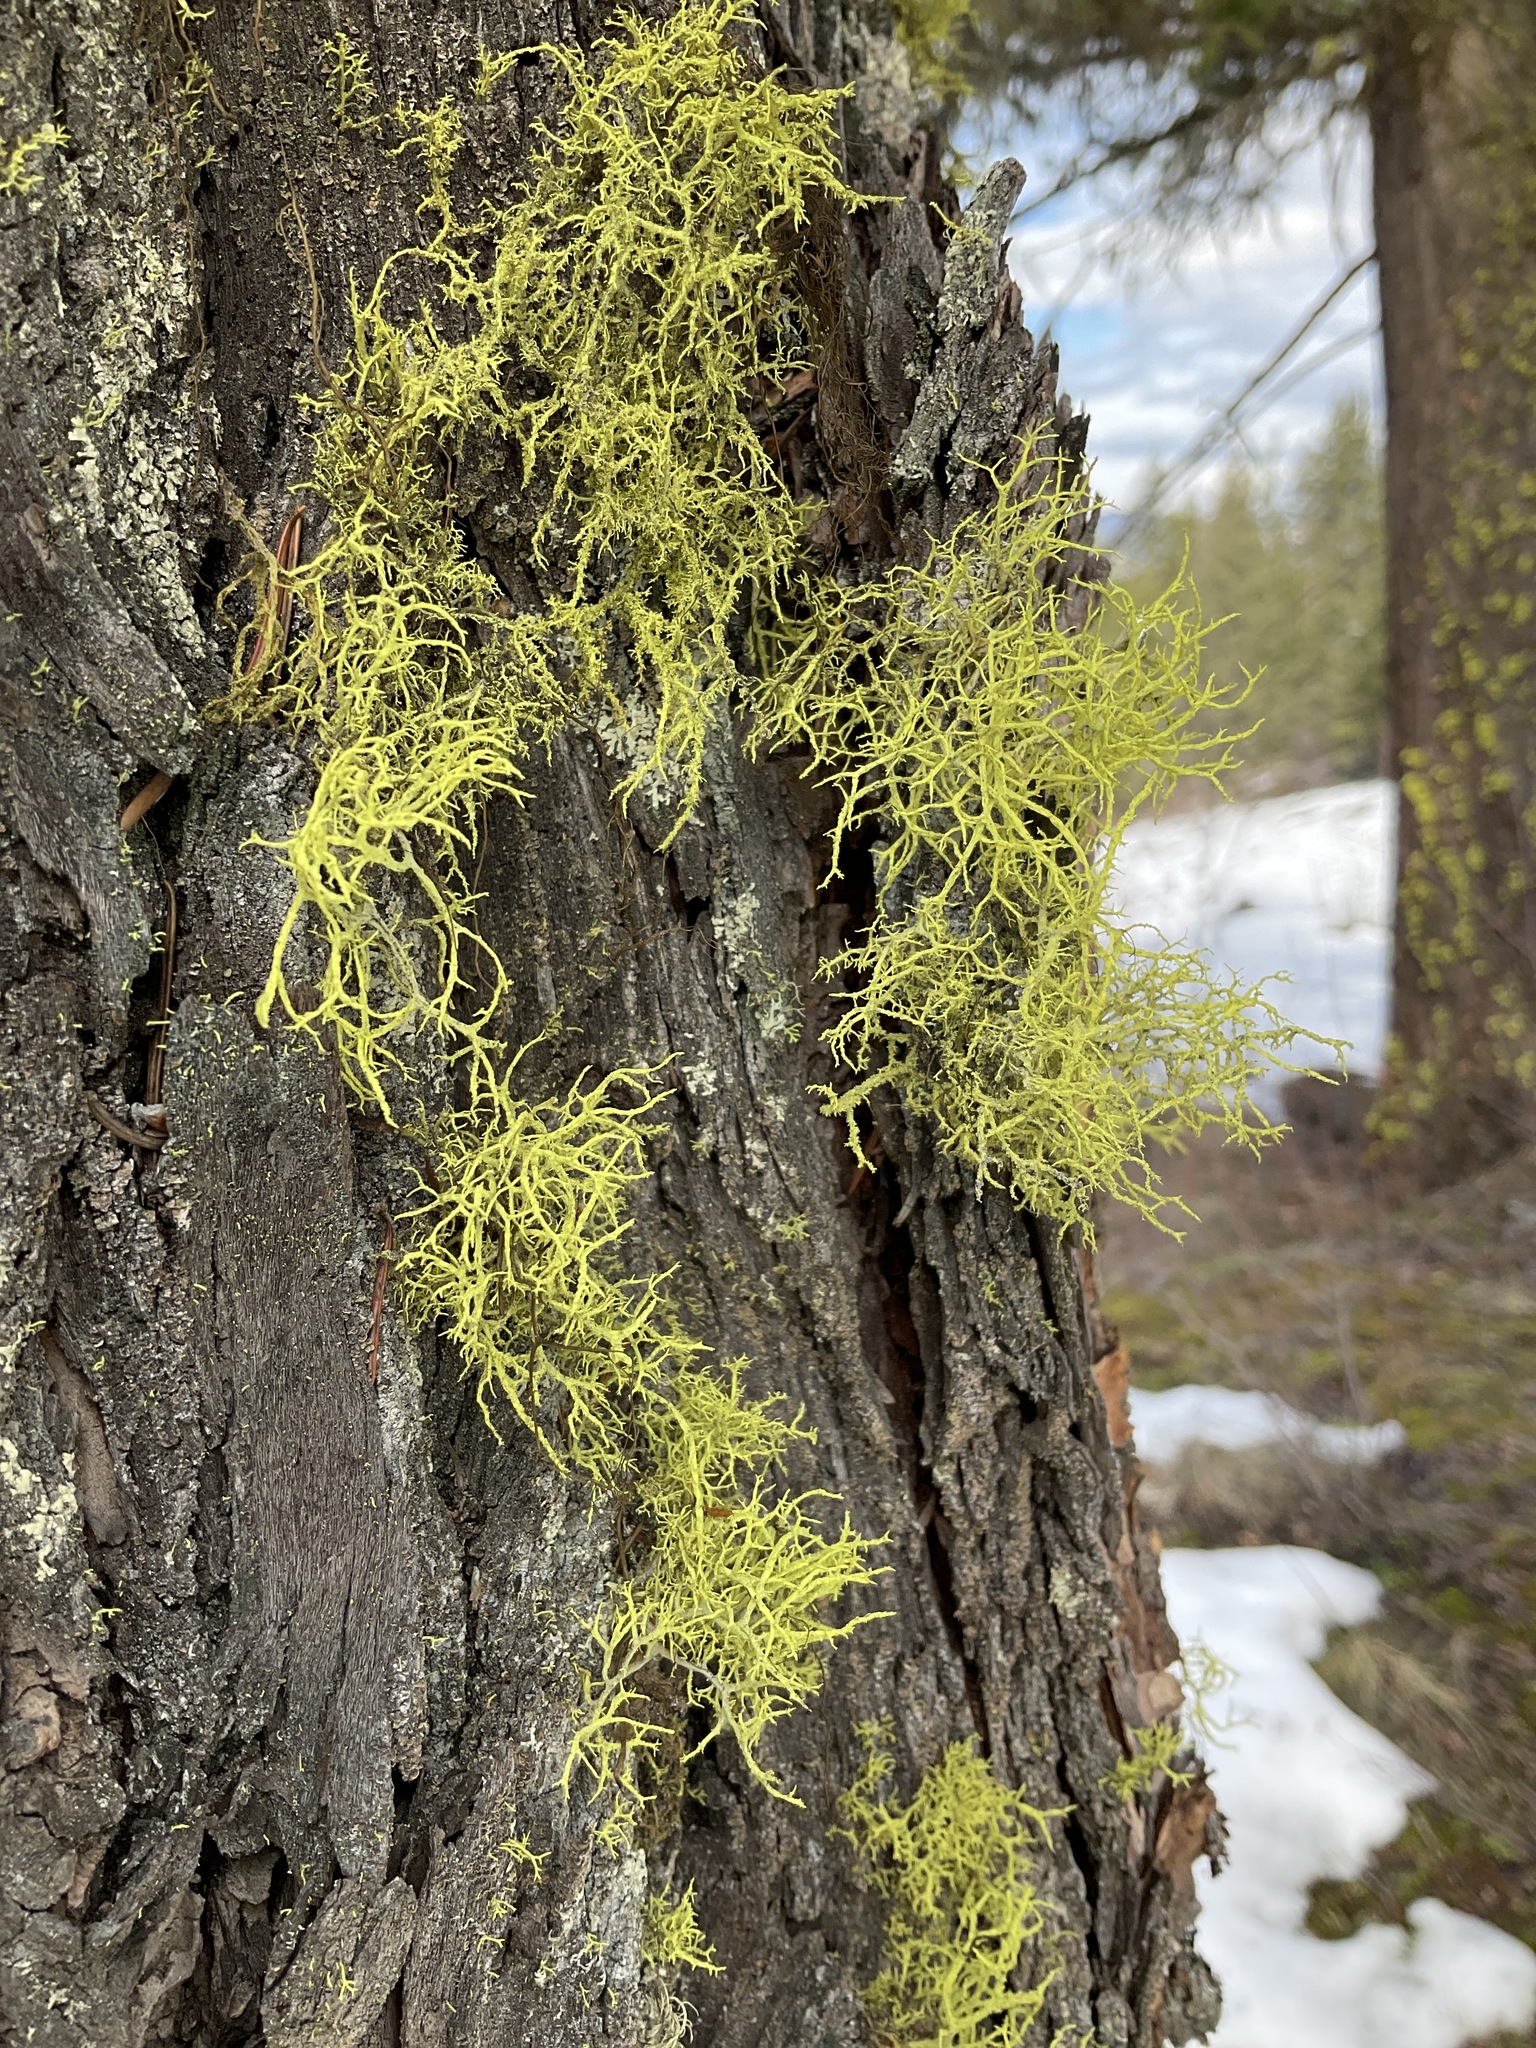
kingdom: Fungi
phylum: Ascomycota
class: Lecanoromycetes
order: Lecanorales
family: Parmeliaceae
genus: Letharia
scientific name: Letharia vulpina
